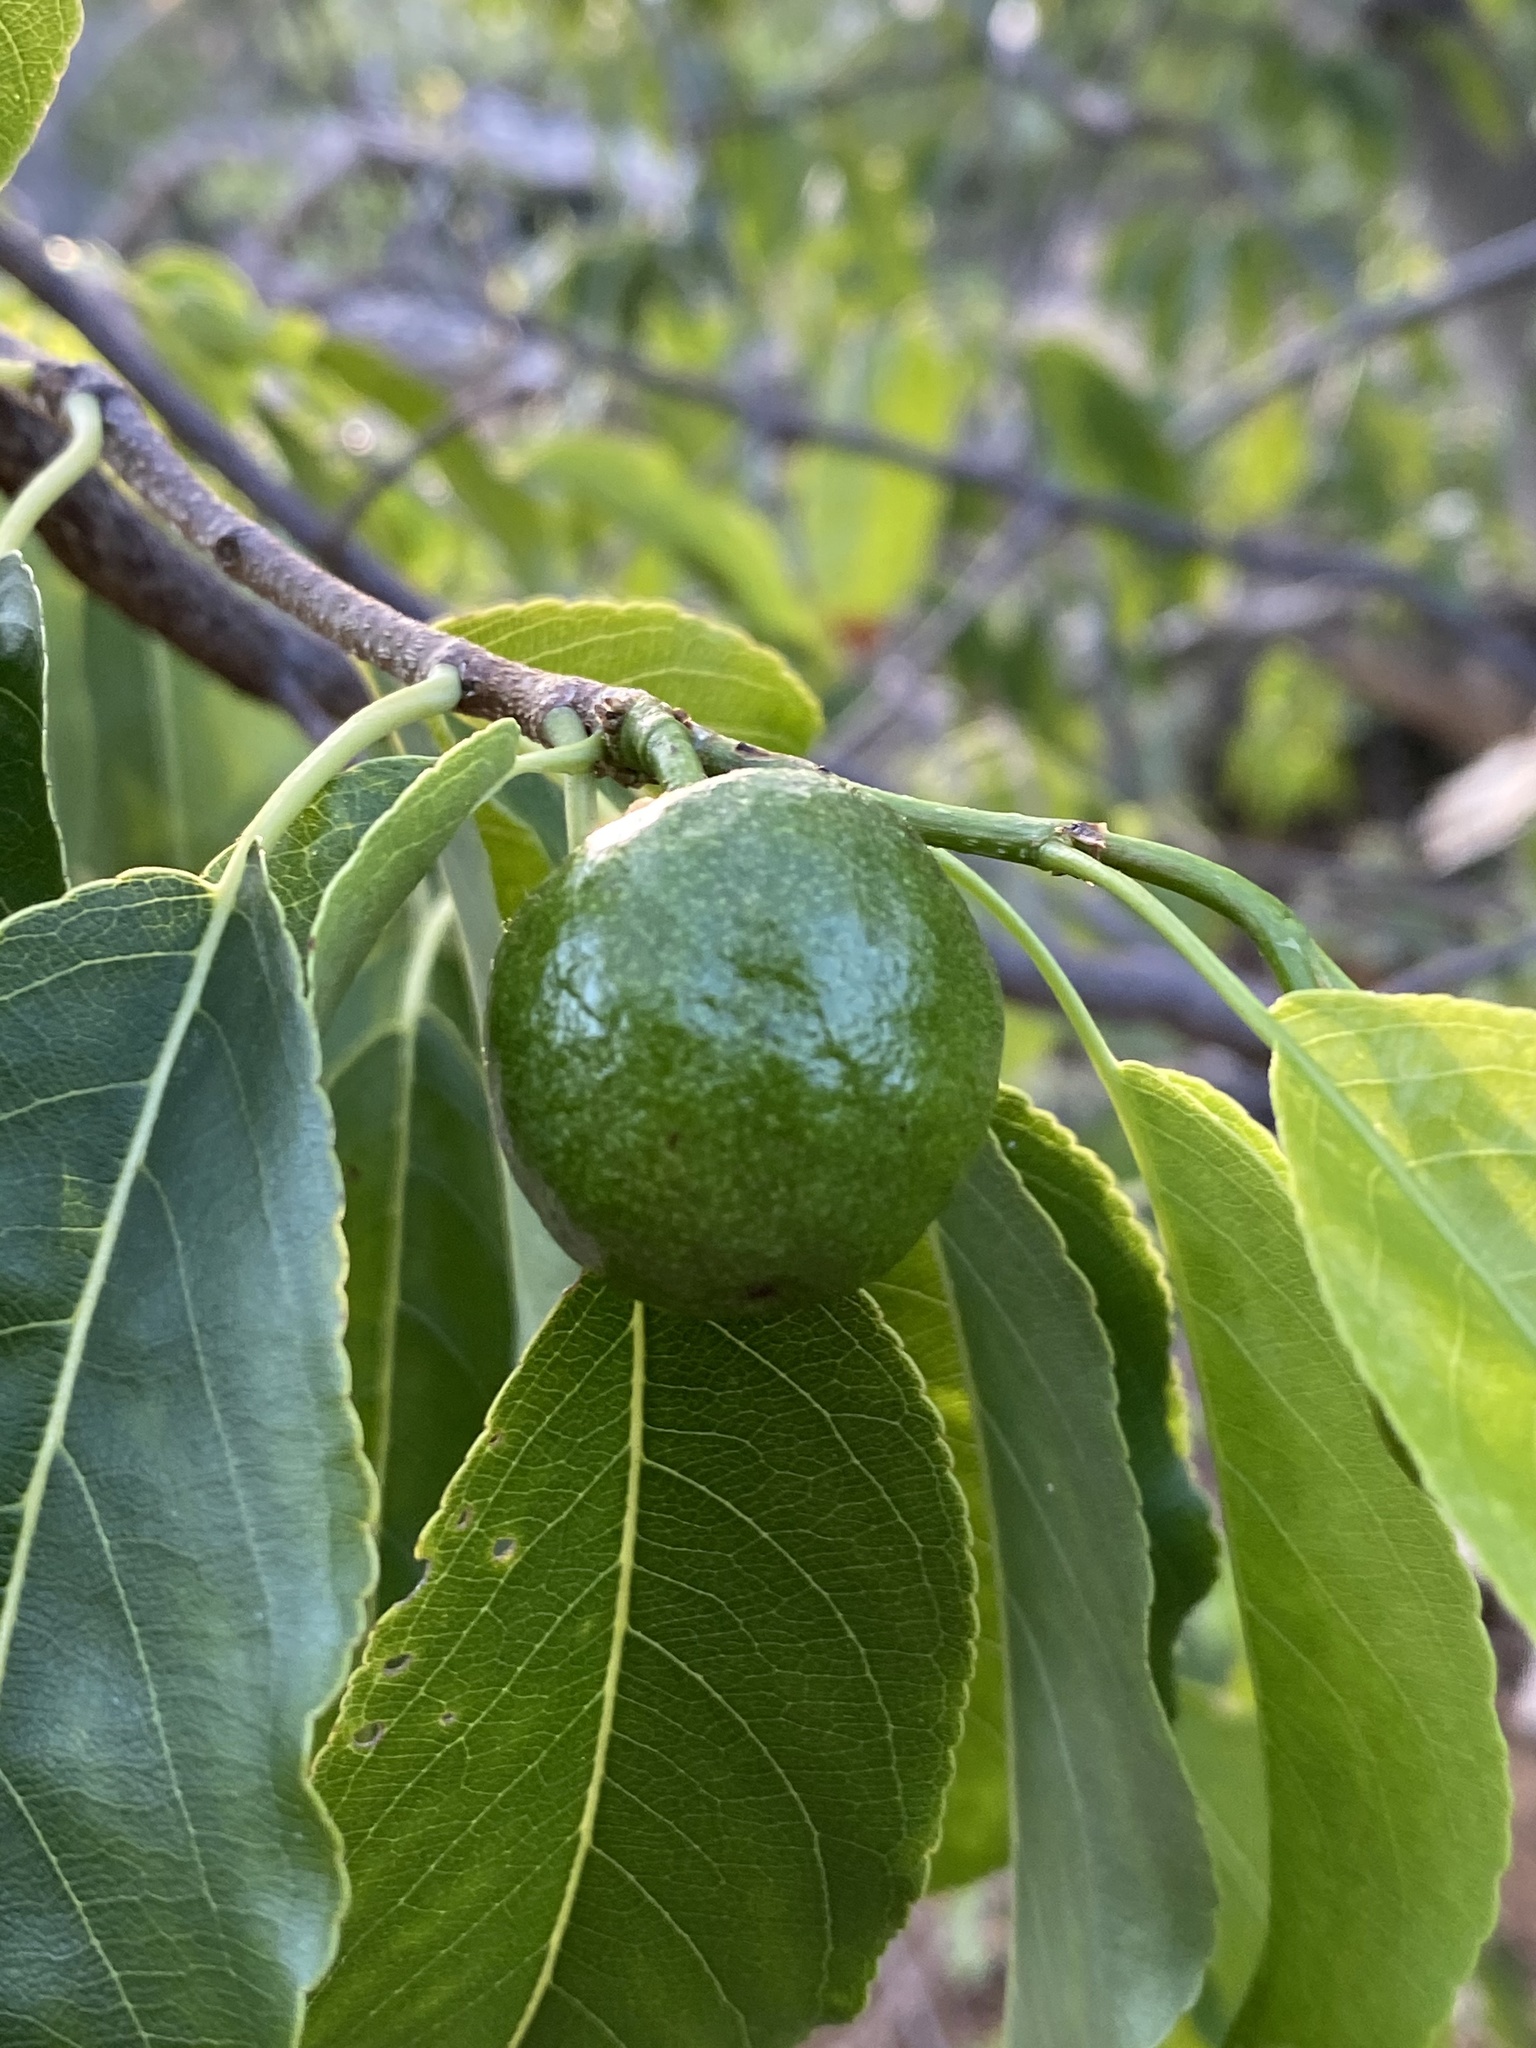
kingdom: Plantae
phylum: Tracheophyta
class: Magnoliopsida
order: Malpighiales
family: Salicaceae
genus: Casearia
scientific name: Casearia tremula
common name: Jumbie guava
